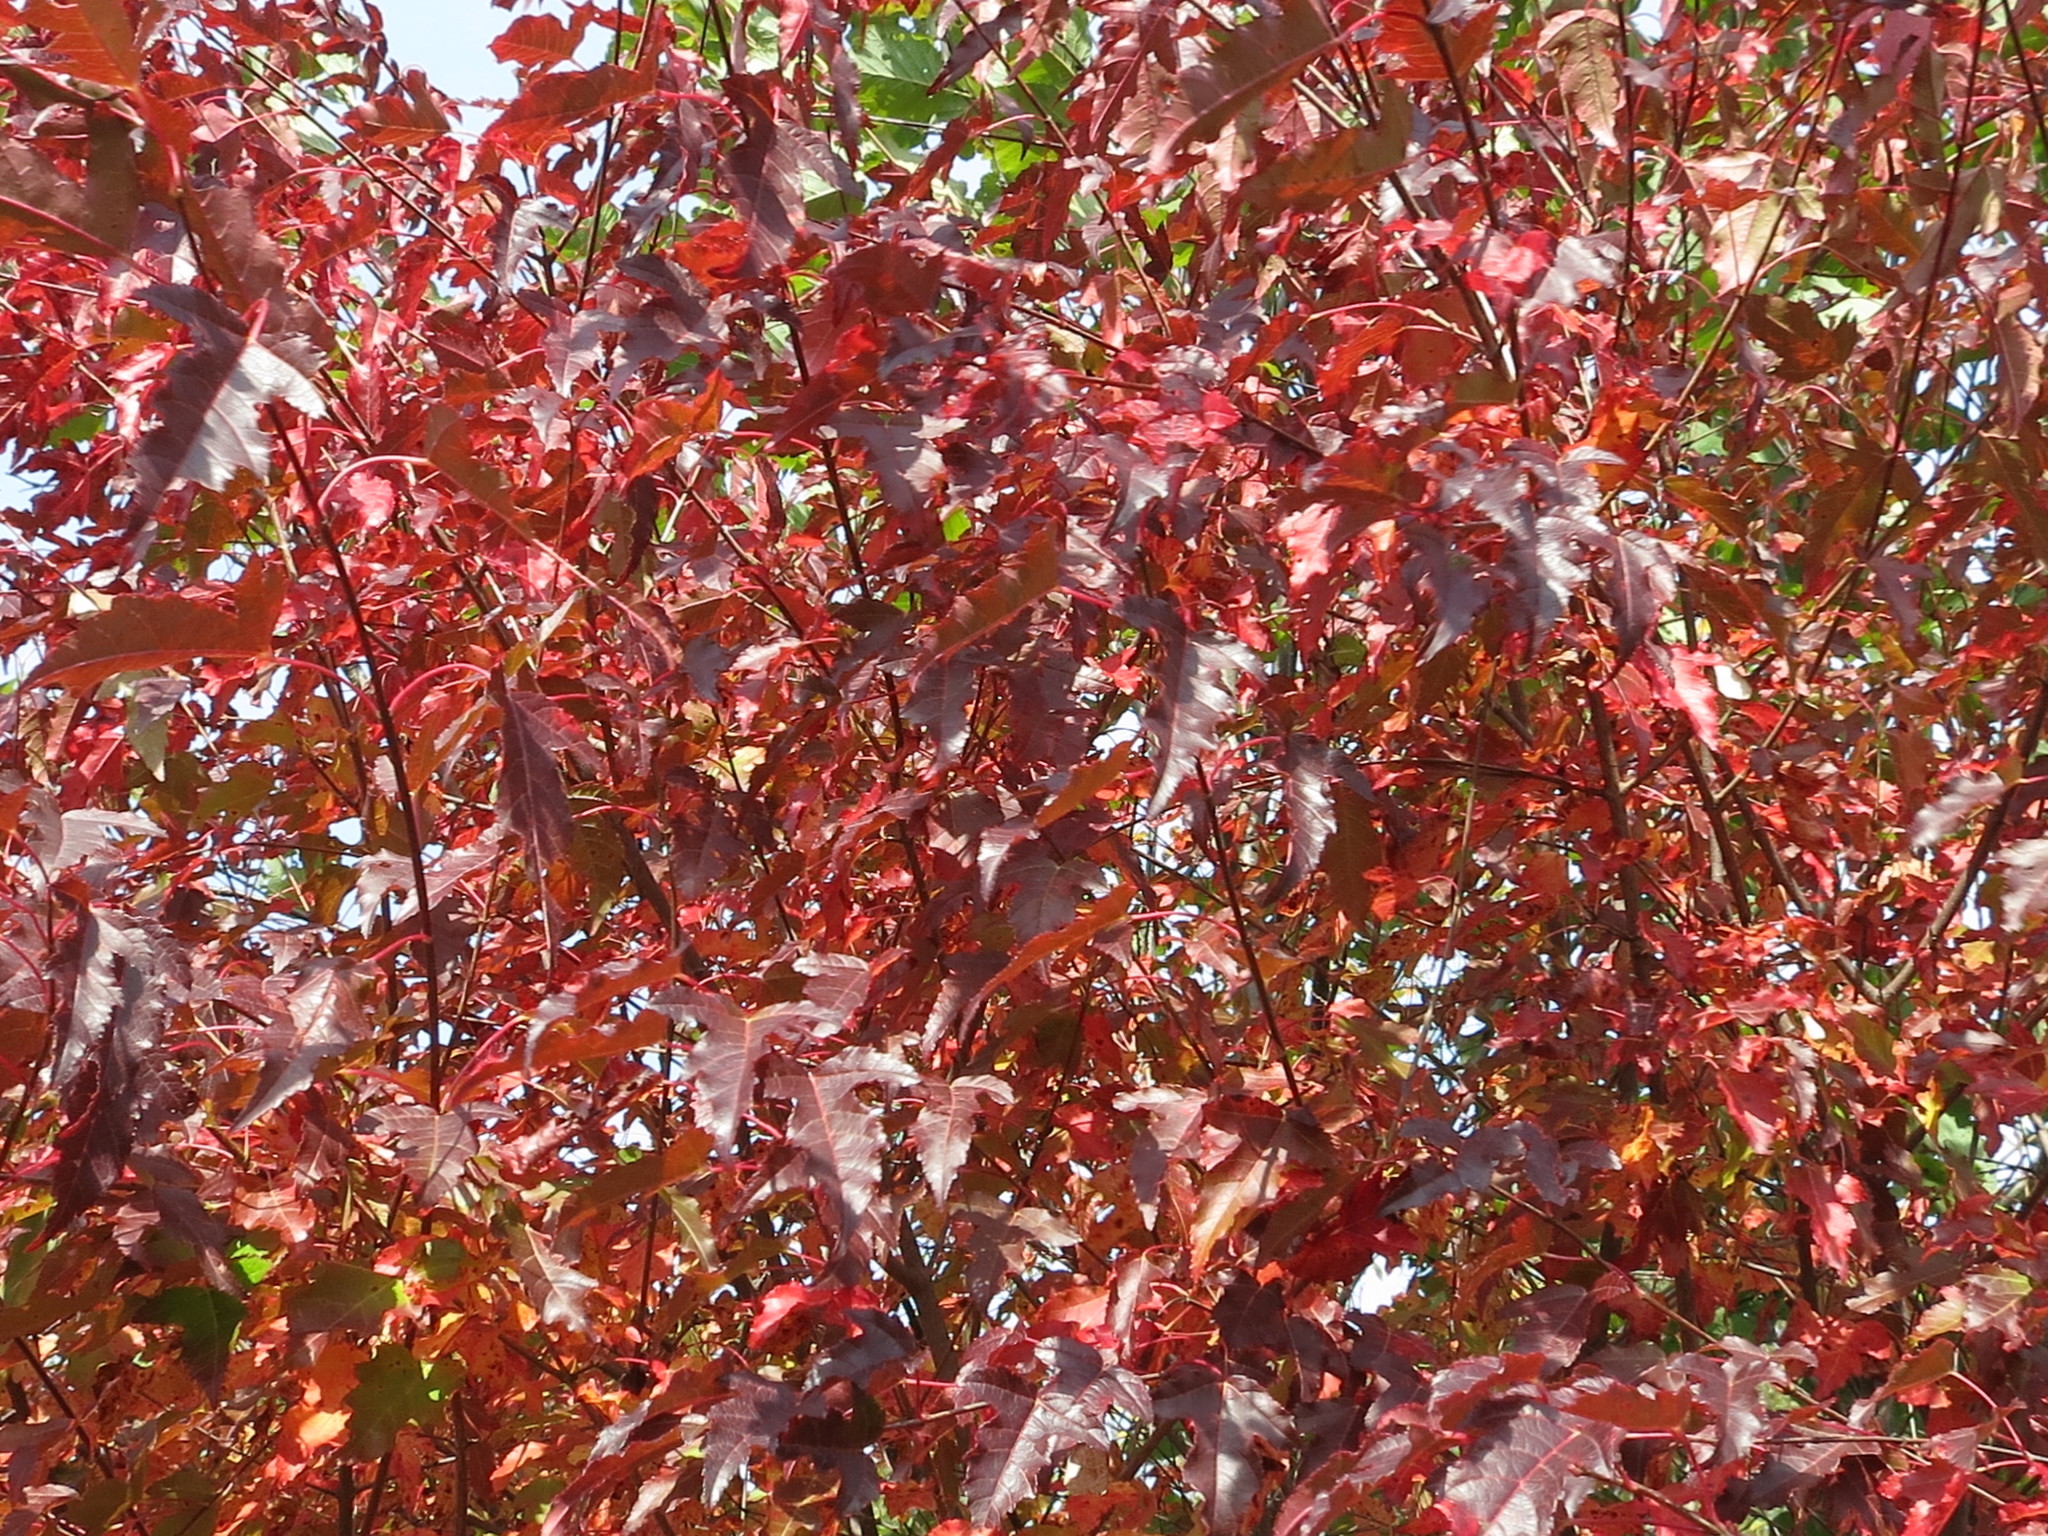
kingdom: Plantae
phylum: Tracheophyta
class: Magnoliopsida
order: Sapindales
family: Sapindaceae
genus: Acer
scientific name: Acer tataricum
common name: Tartar maple
